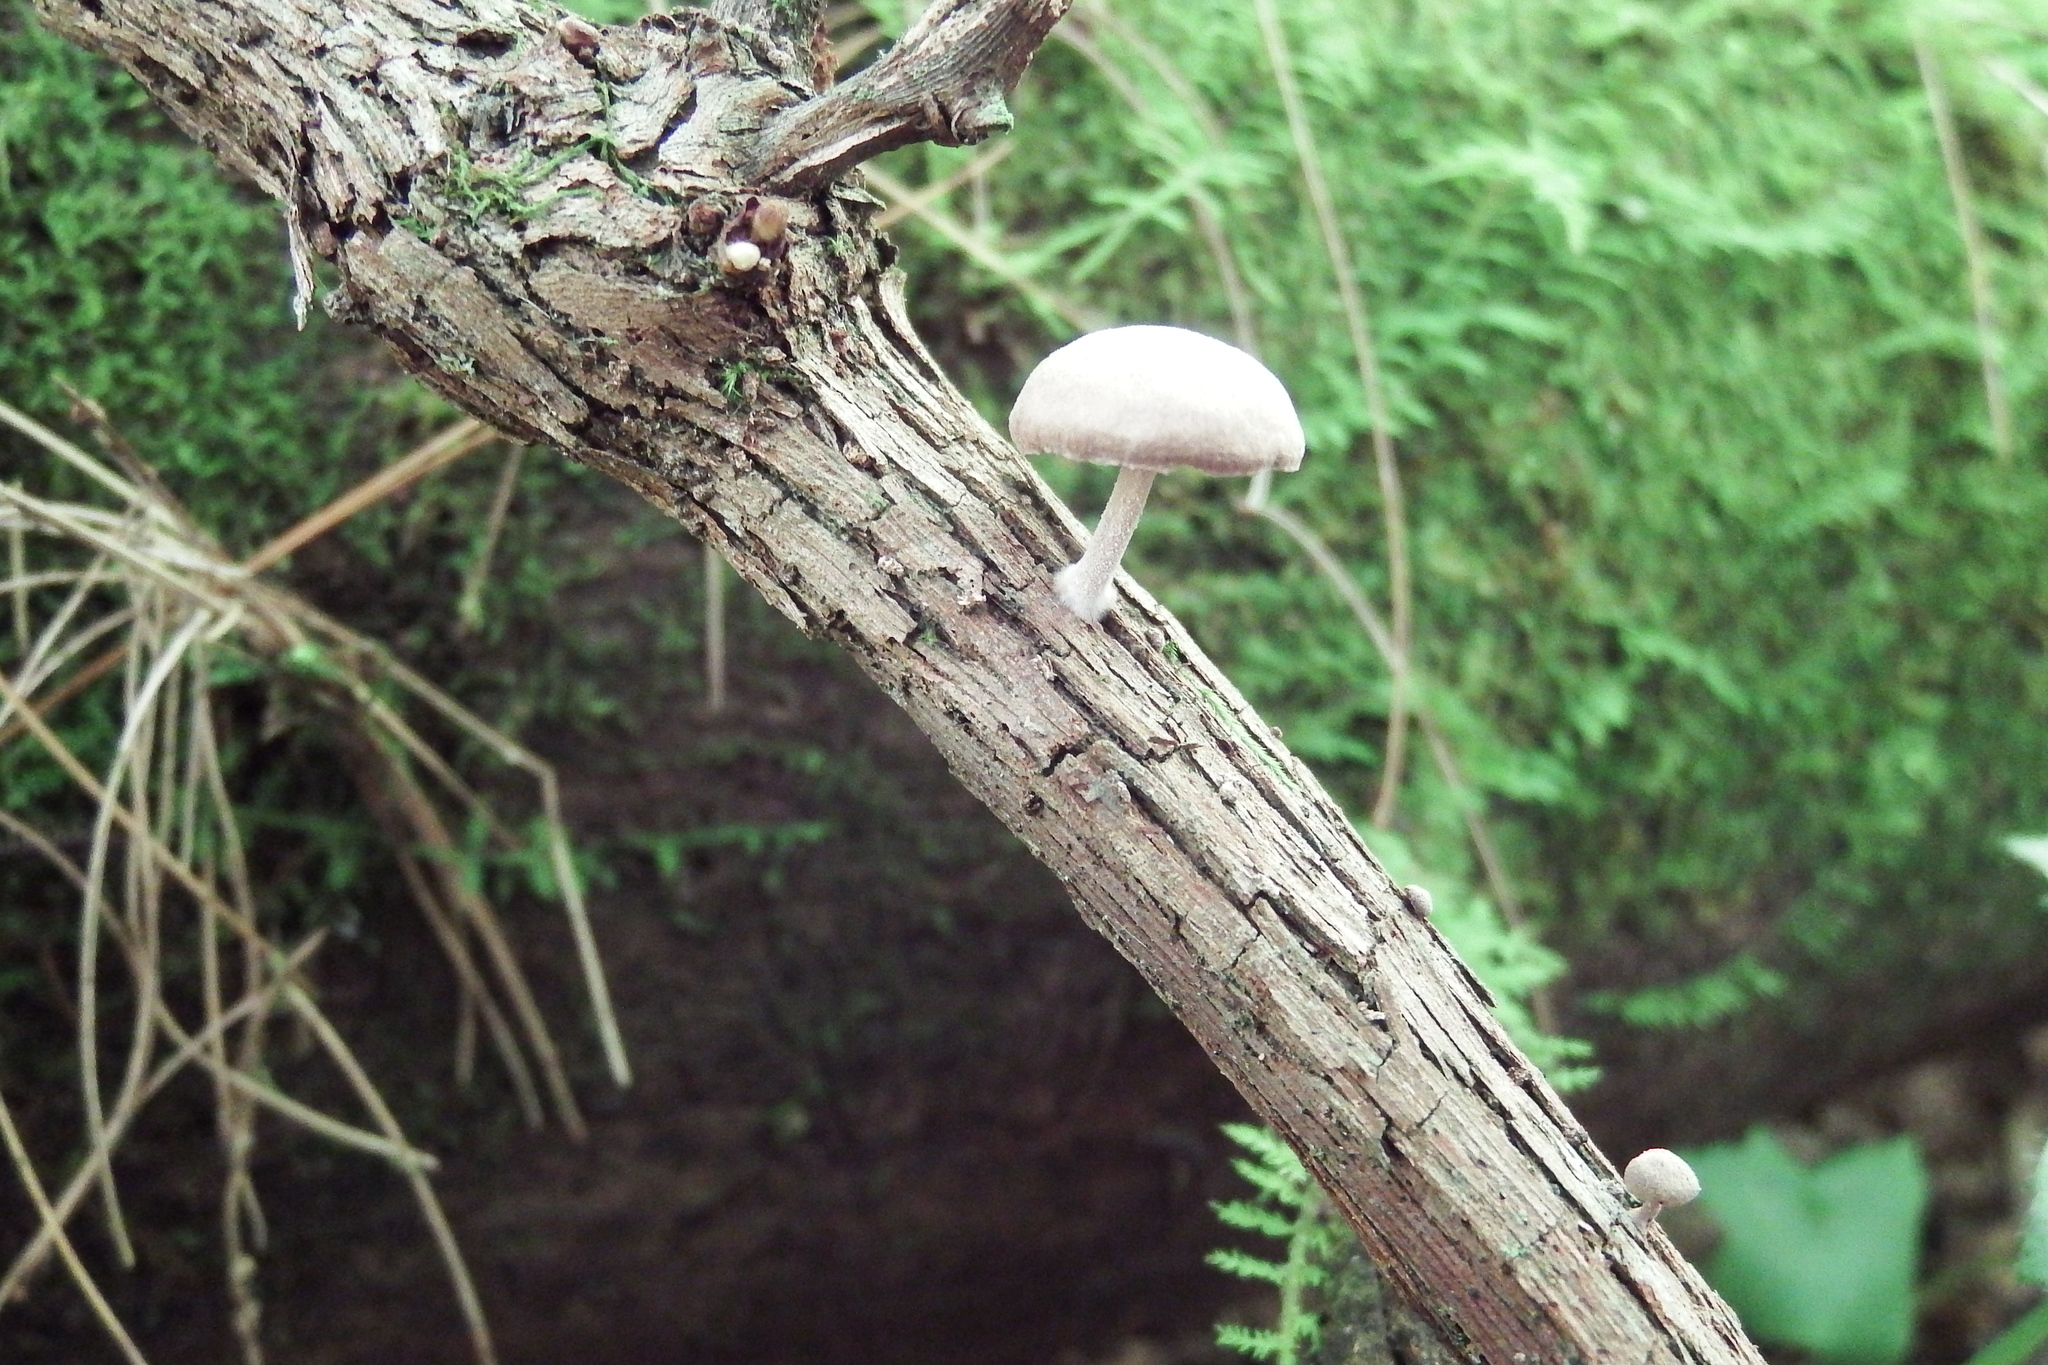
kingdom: Fungi
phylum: Basidiomycota
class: Agaricomycetes
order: Agaricales
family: Omphalotaceae
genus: Collybiopsis
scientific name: Collybiopsis dichroa
